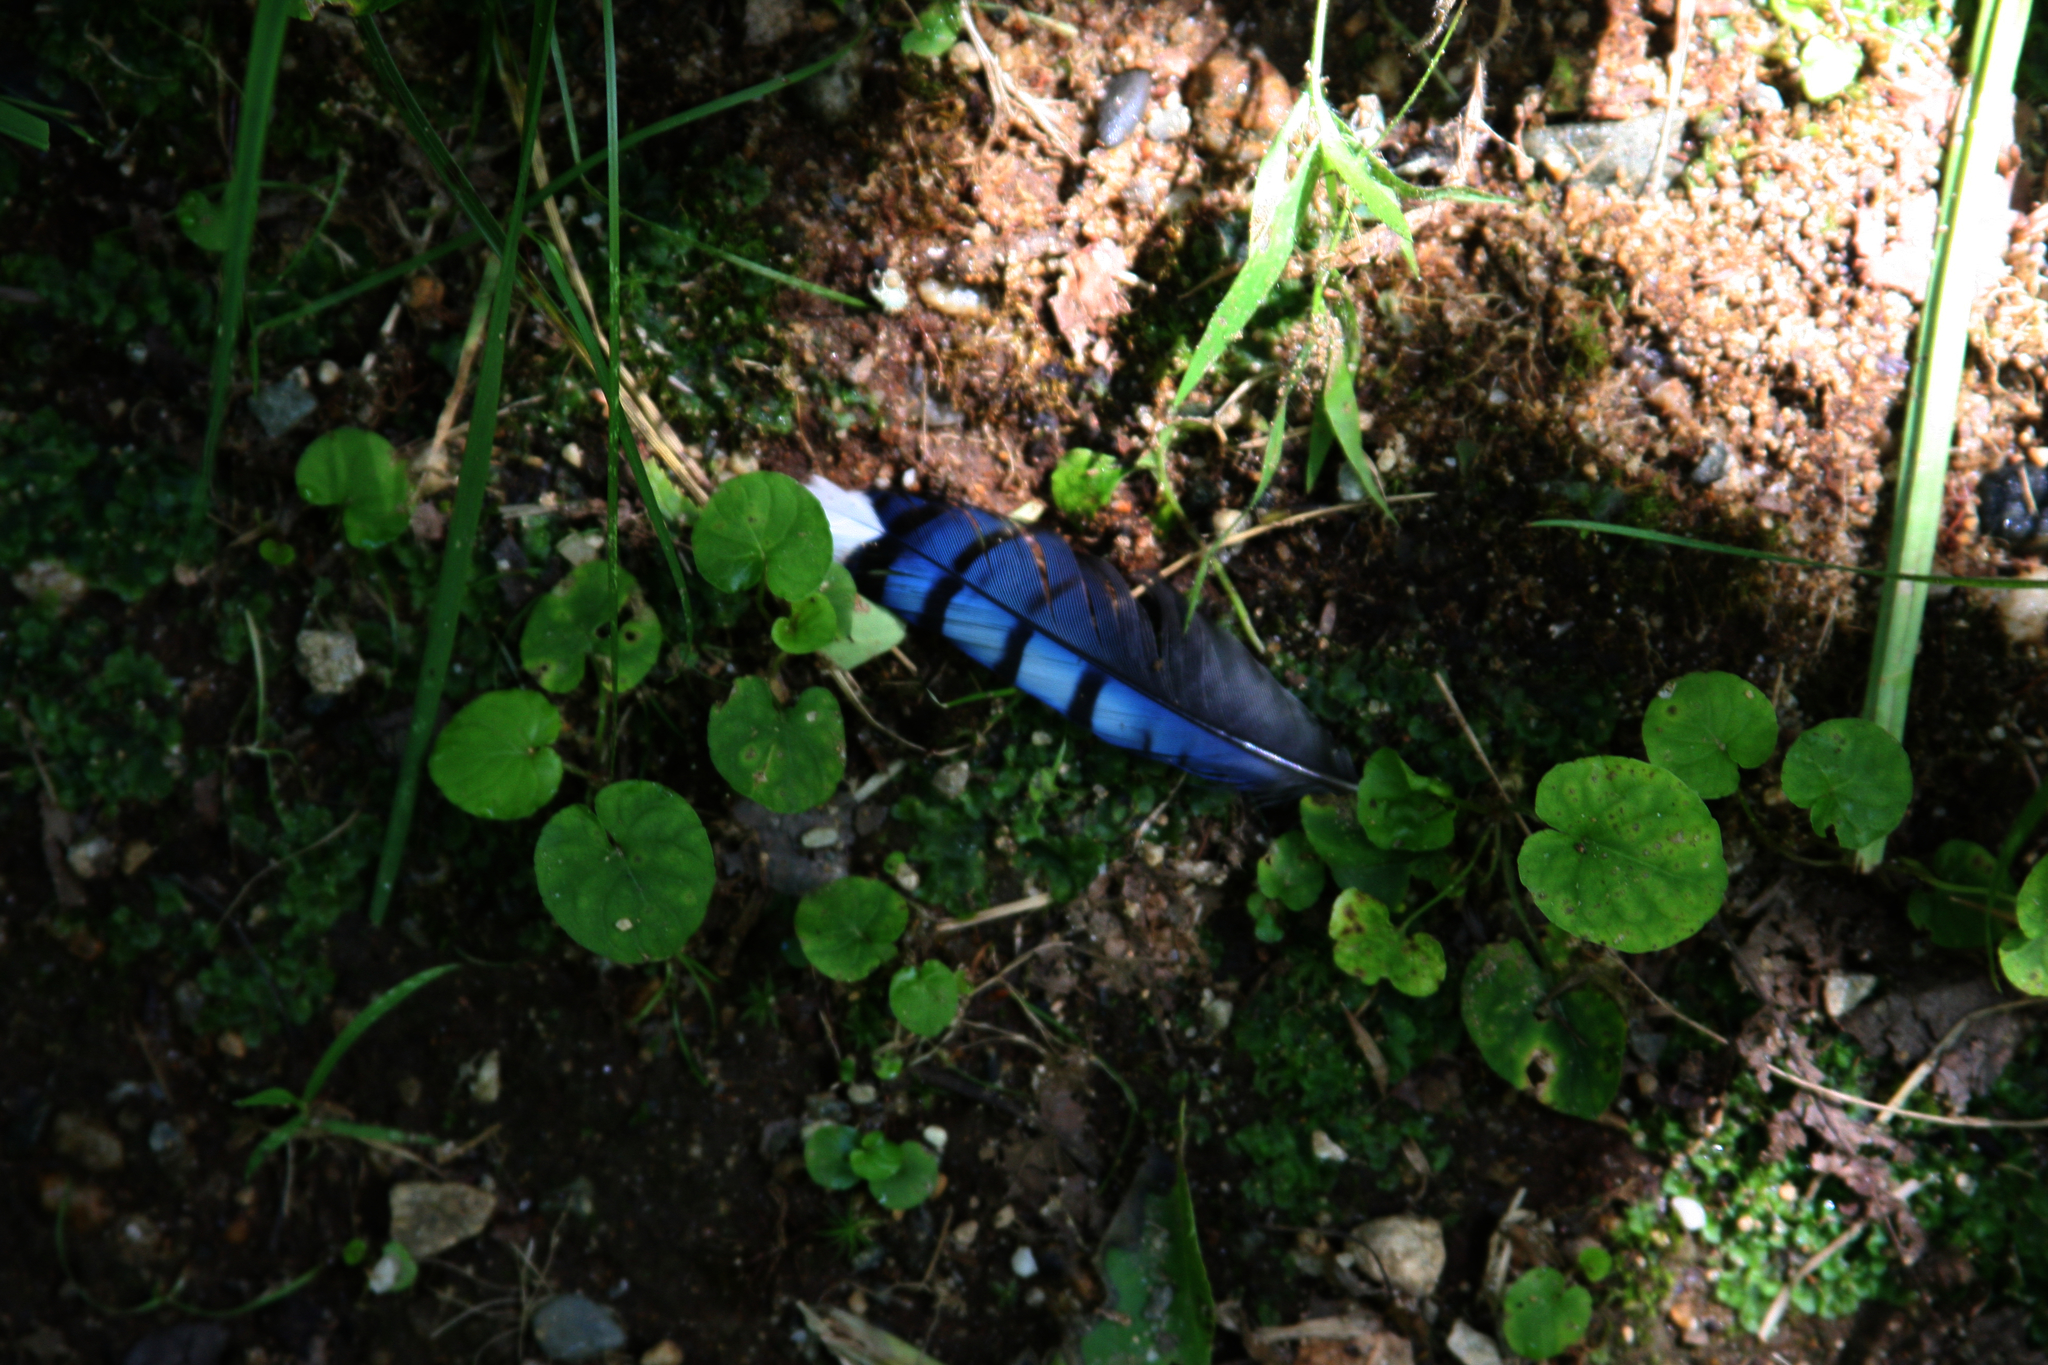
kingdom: Animalia
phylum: Chordata
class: Aves
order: Passeriformes
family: Corvidae
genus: Cyanocitta
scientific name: Cyanocitta cristata
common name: Blue jay
